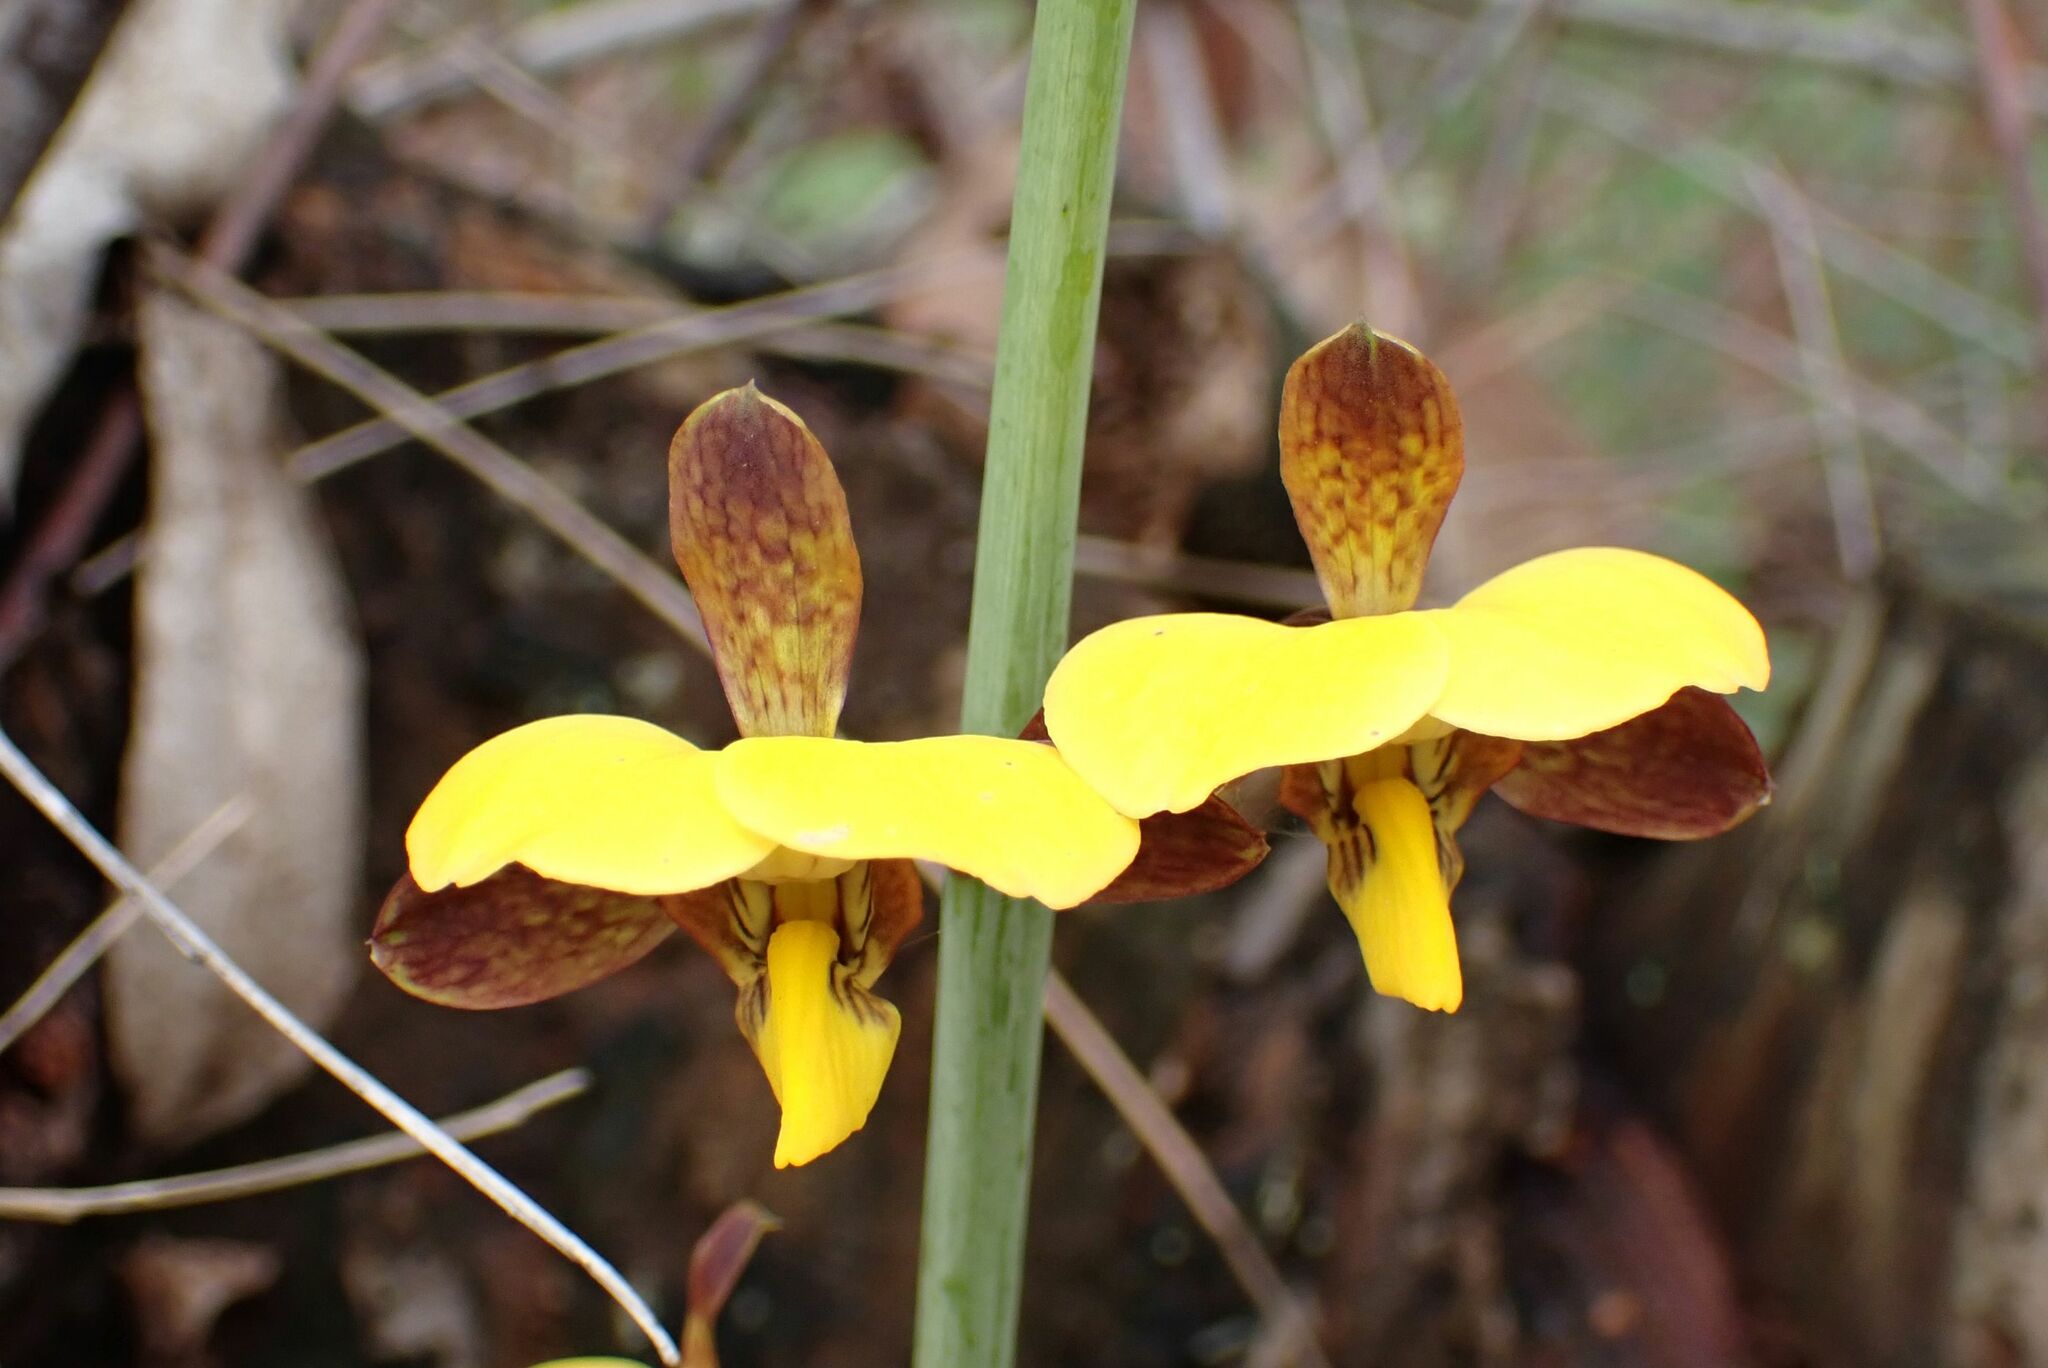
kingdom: Plantae
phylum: Tracheophyta
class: Liliopsida
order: Asparagales
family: Orchidaceae
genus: Eulophia
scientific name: Eulophia streptopetala
